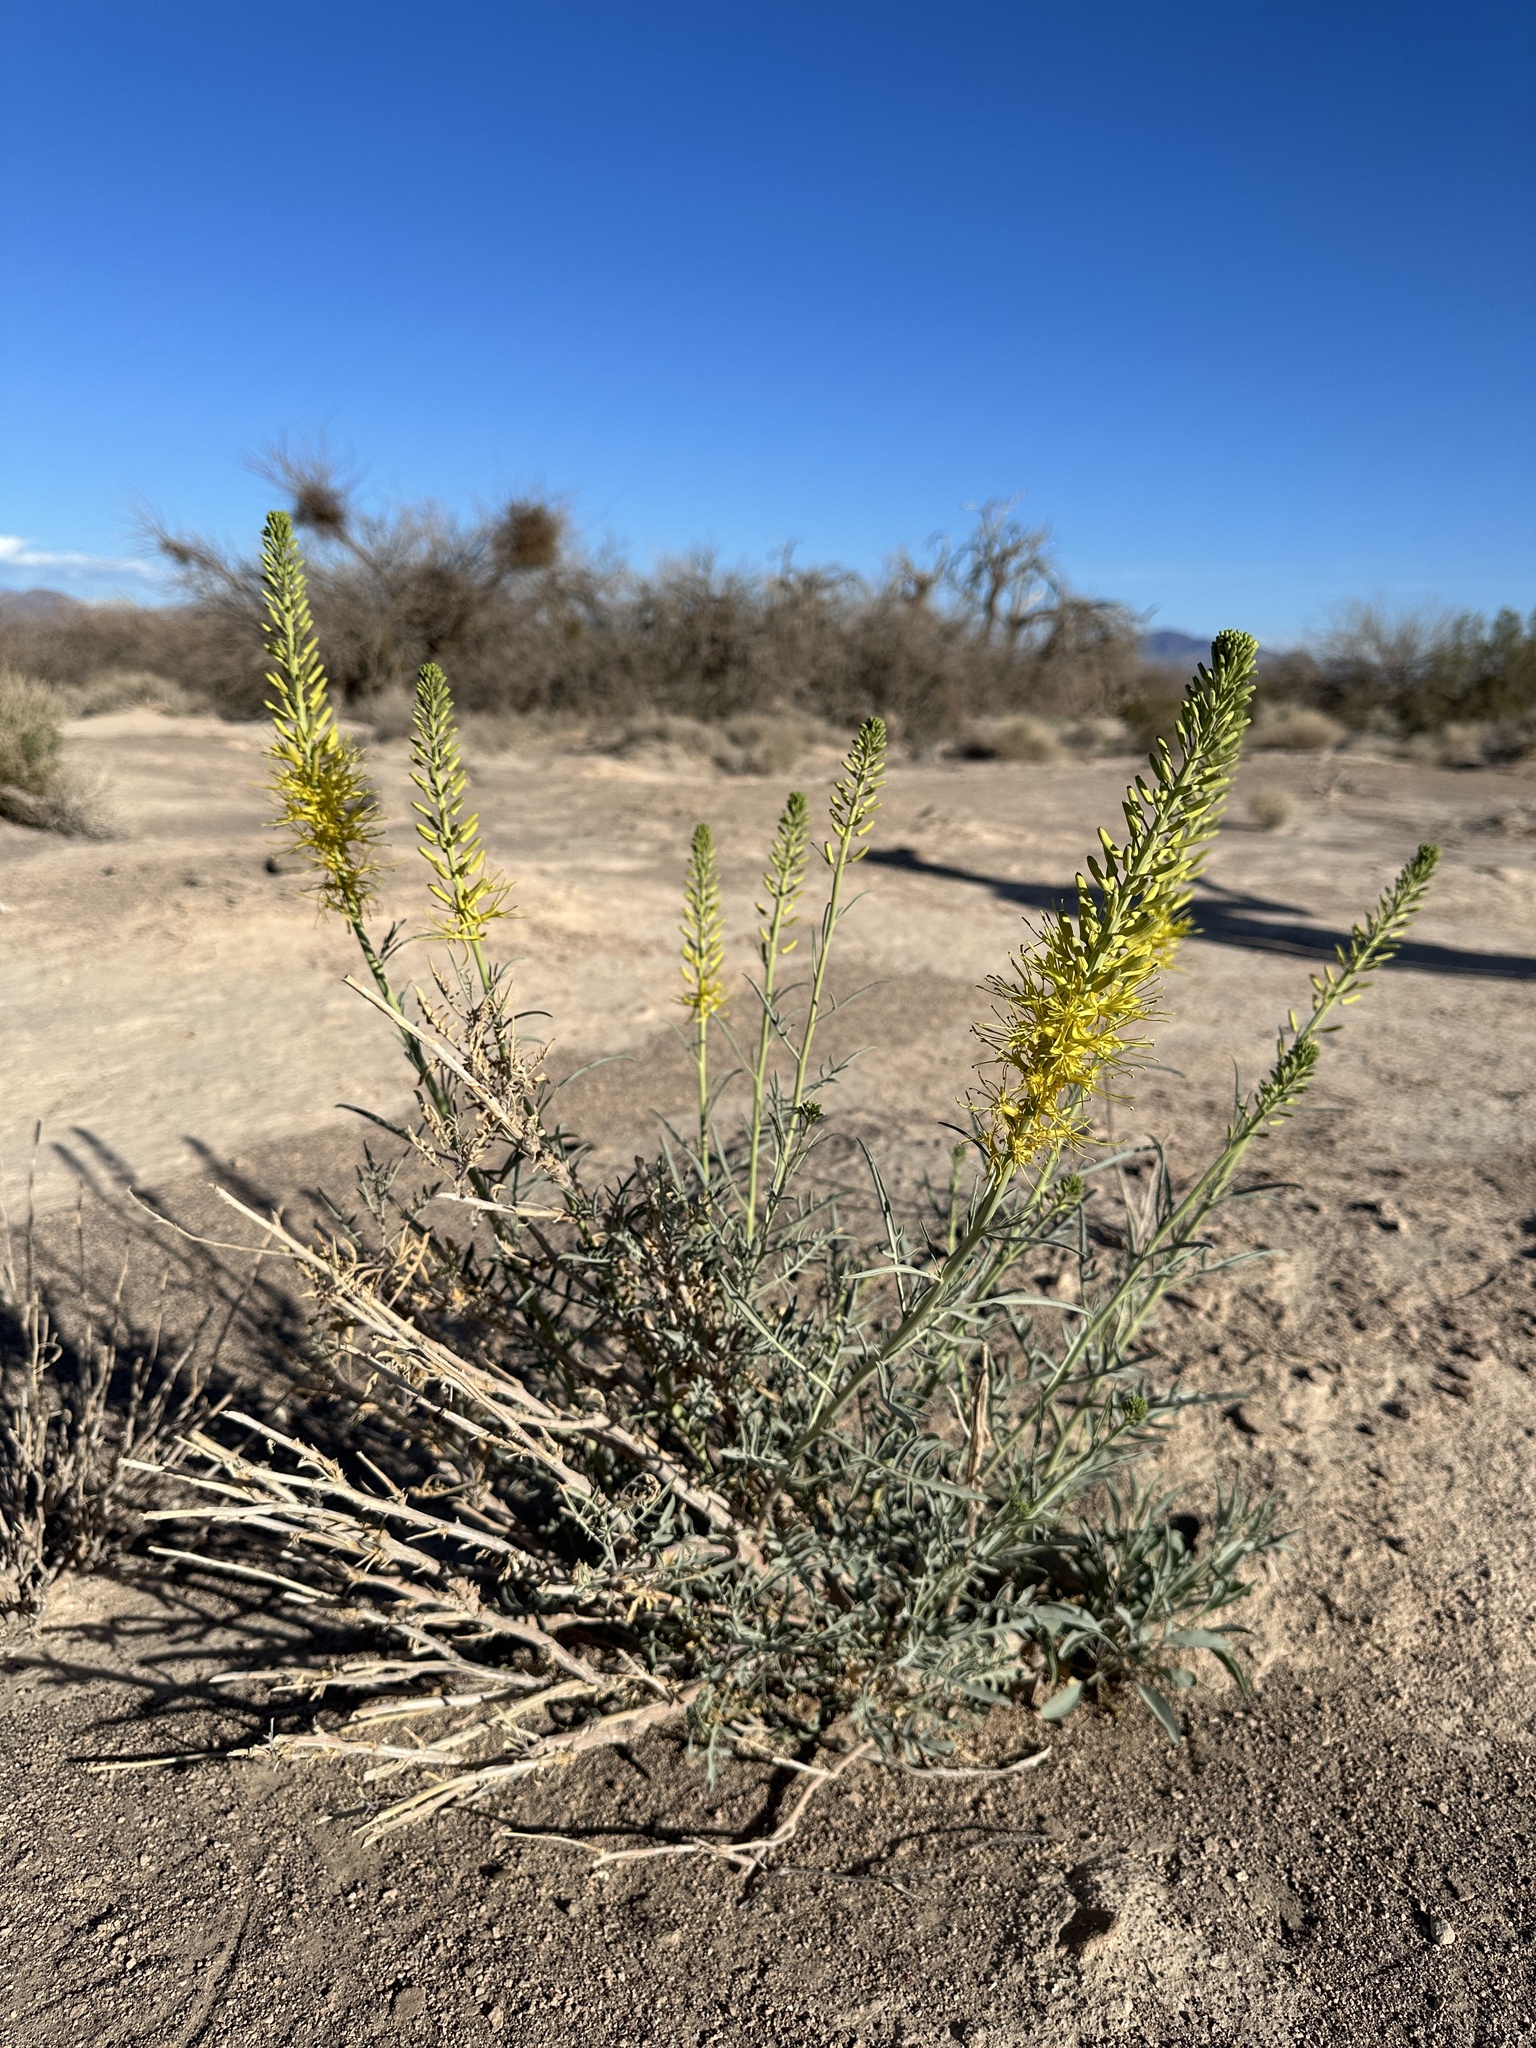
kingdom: Plantae
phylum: Tracheophyta
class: Magnoliopsida
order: Brassicales
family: Brassicaceae
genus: Stanleya
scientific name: Stanleya pinnata
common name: Prince's-plume
